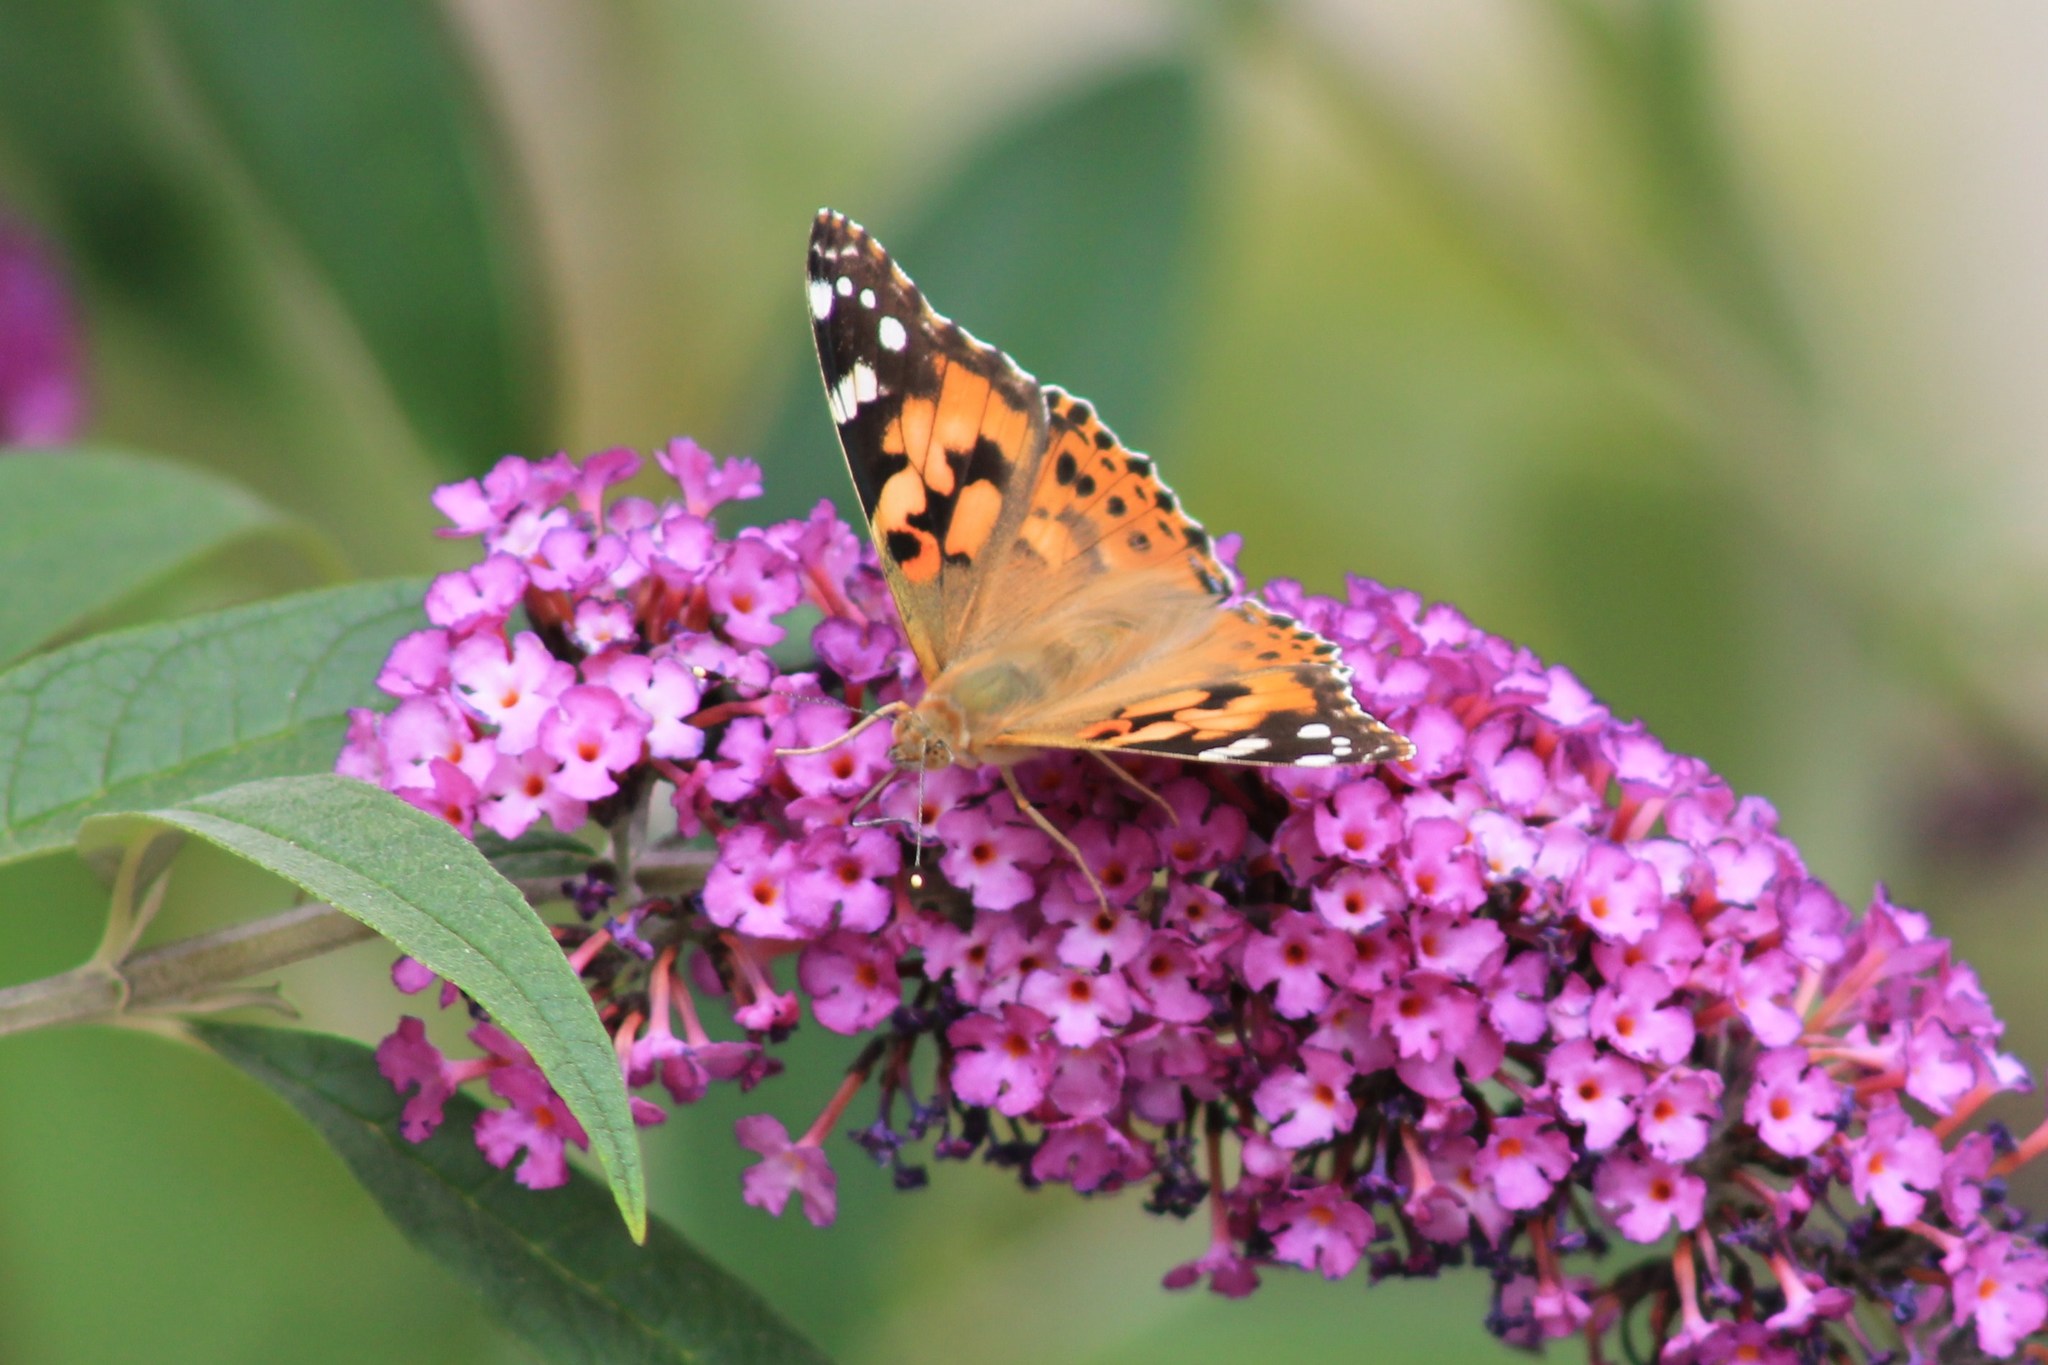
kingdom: Animalia
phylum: Arthropoda
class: Insecta
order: Lepidoptera
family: Nymphalidae
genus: Vanessa
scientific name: Vanessa cardui
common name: Painted lady
